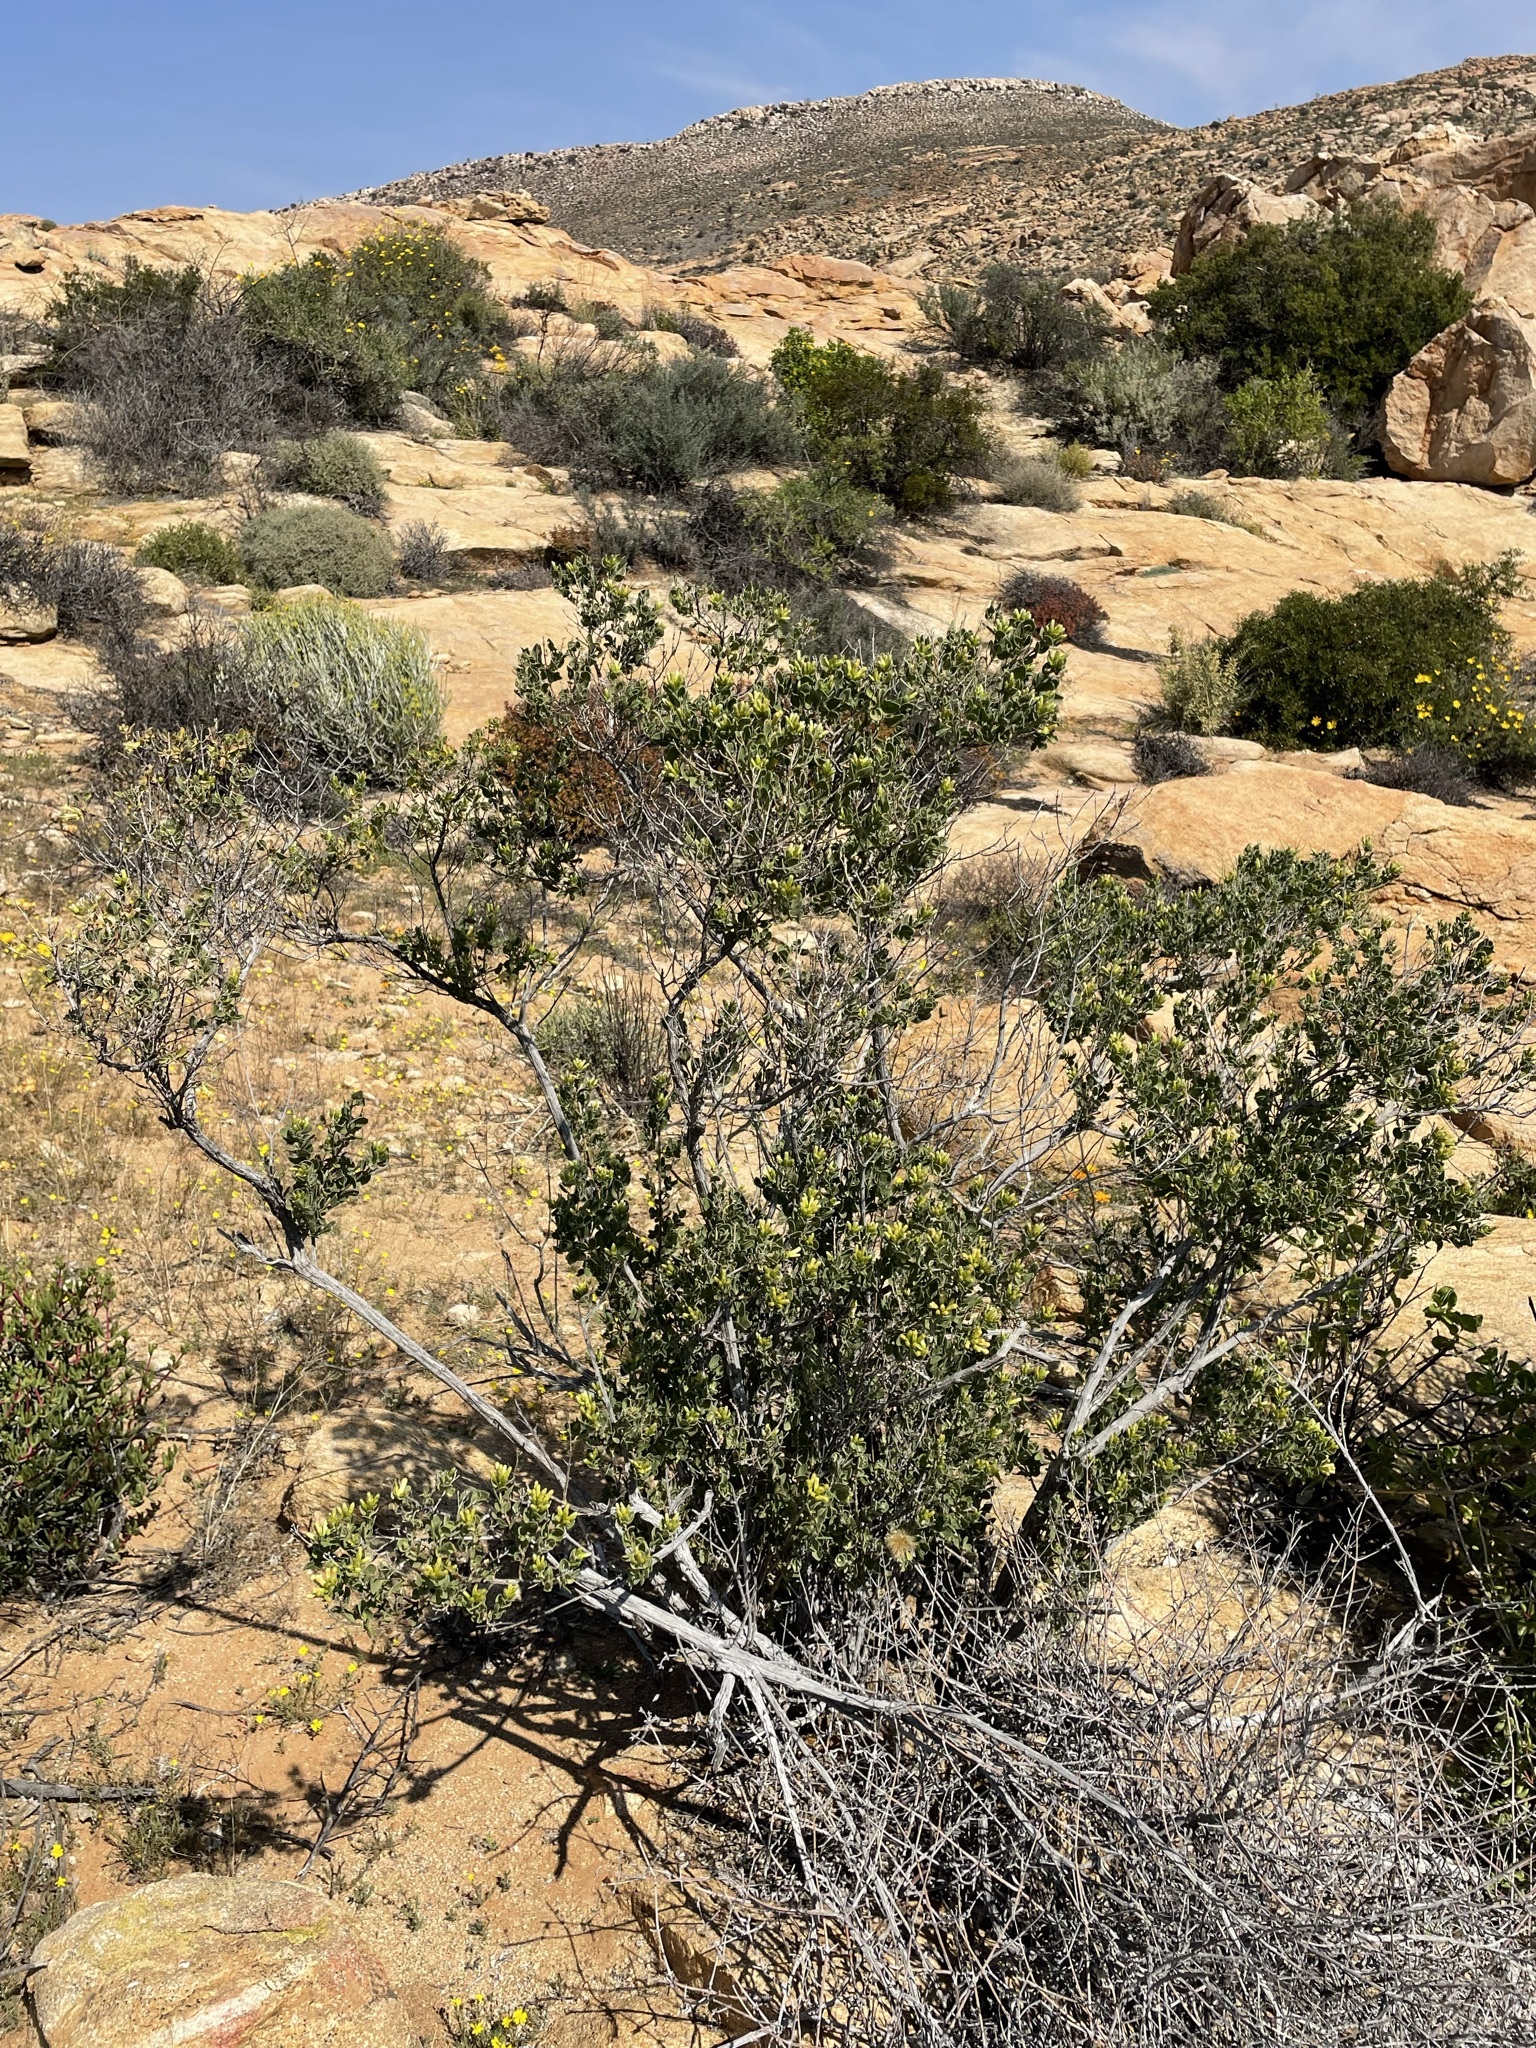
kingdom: Plantae
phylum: Tracheophyta
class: Magnoliopsida
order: Asterales
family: Asteraceae
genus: Pteronia
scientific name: Pteronia divaricata
